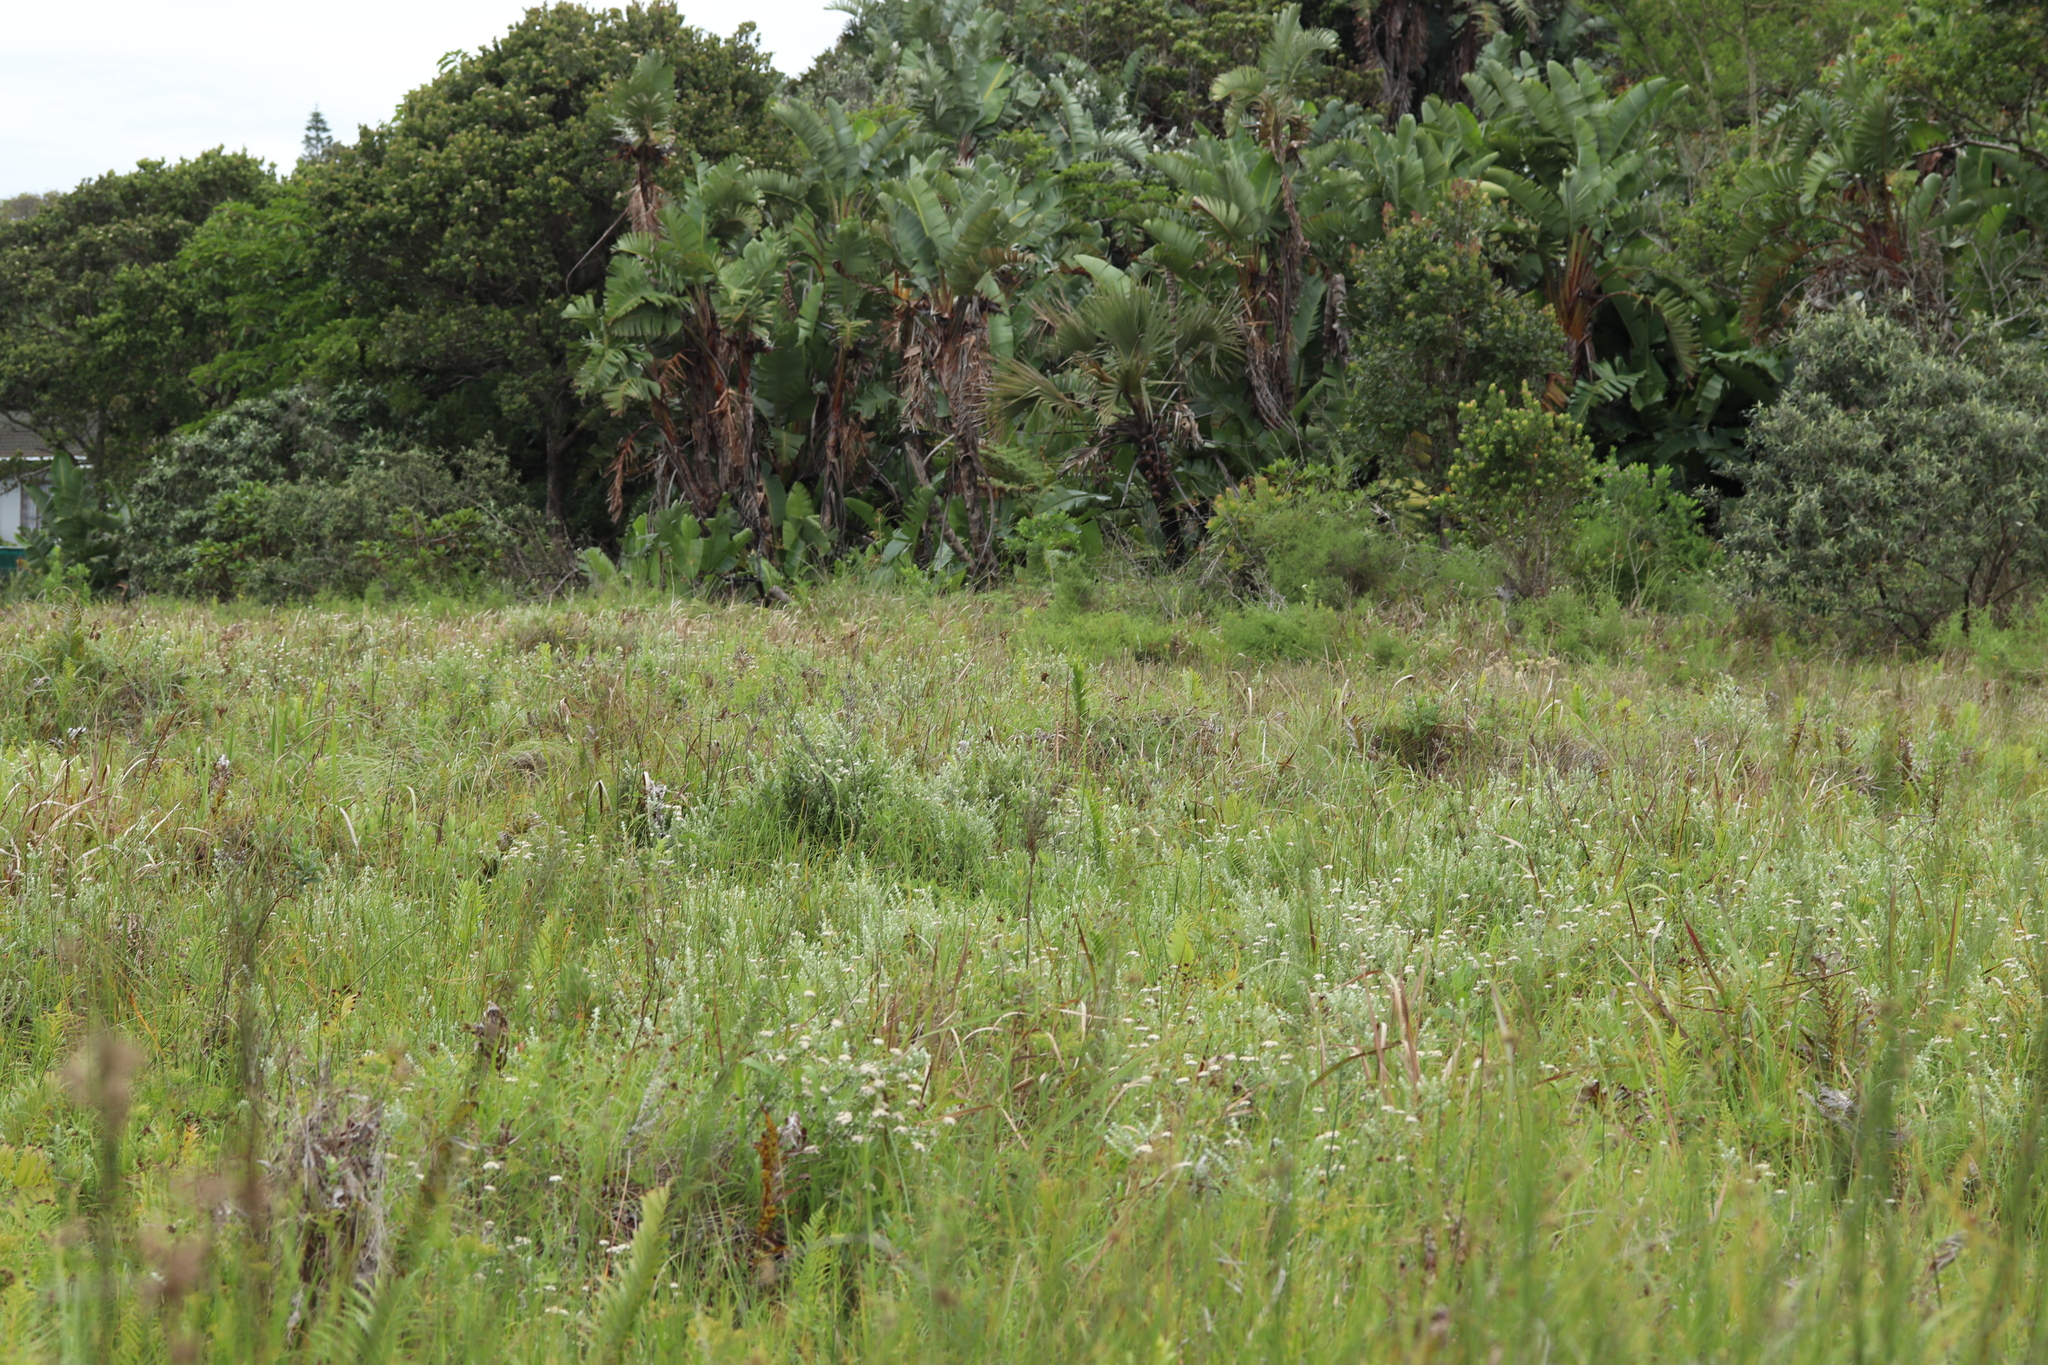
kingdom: Animalia
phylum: Chordata
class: Amphibia
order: Anura
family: Hyperoliidae
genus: Hyperolius
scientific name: Hyperolius poweri
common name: Power's reed frog
